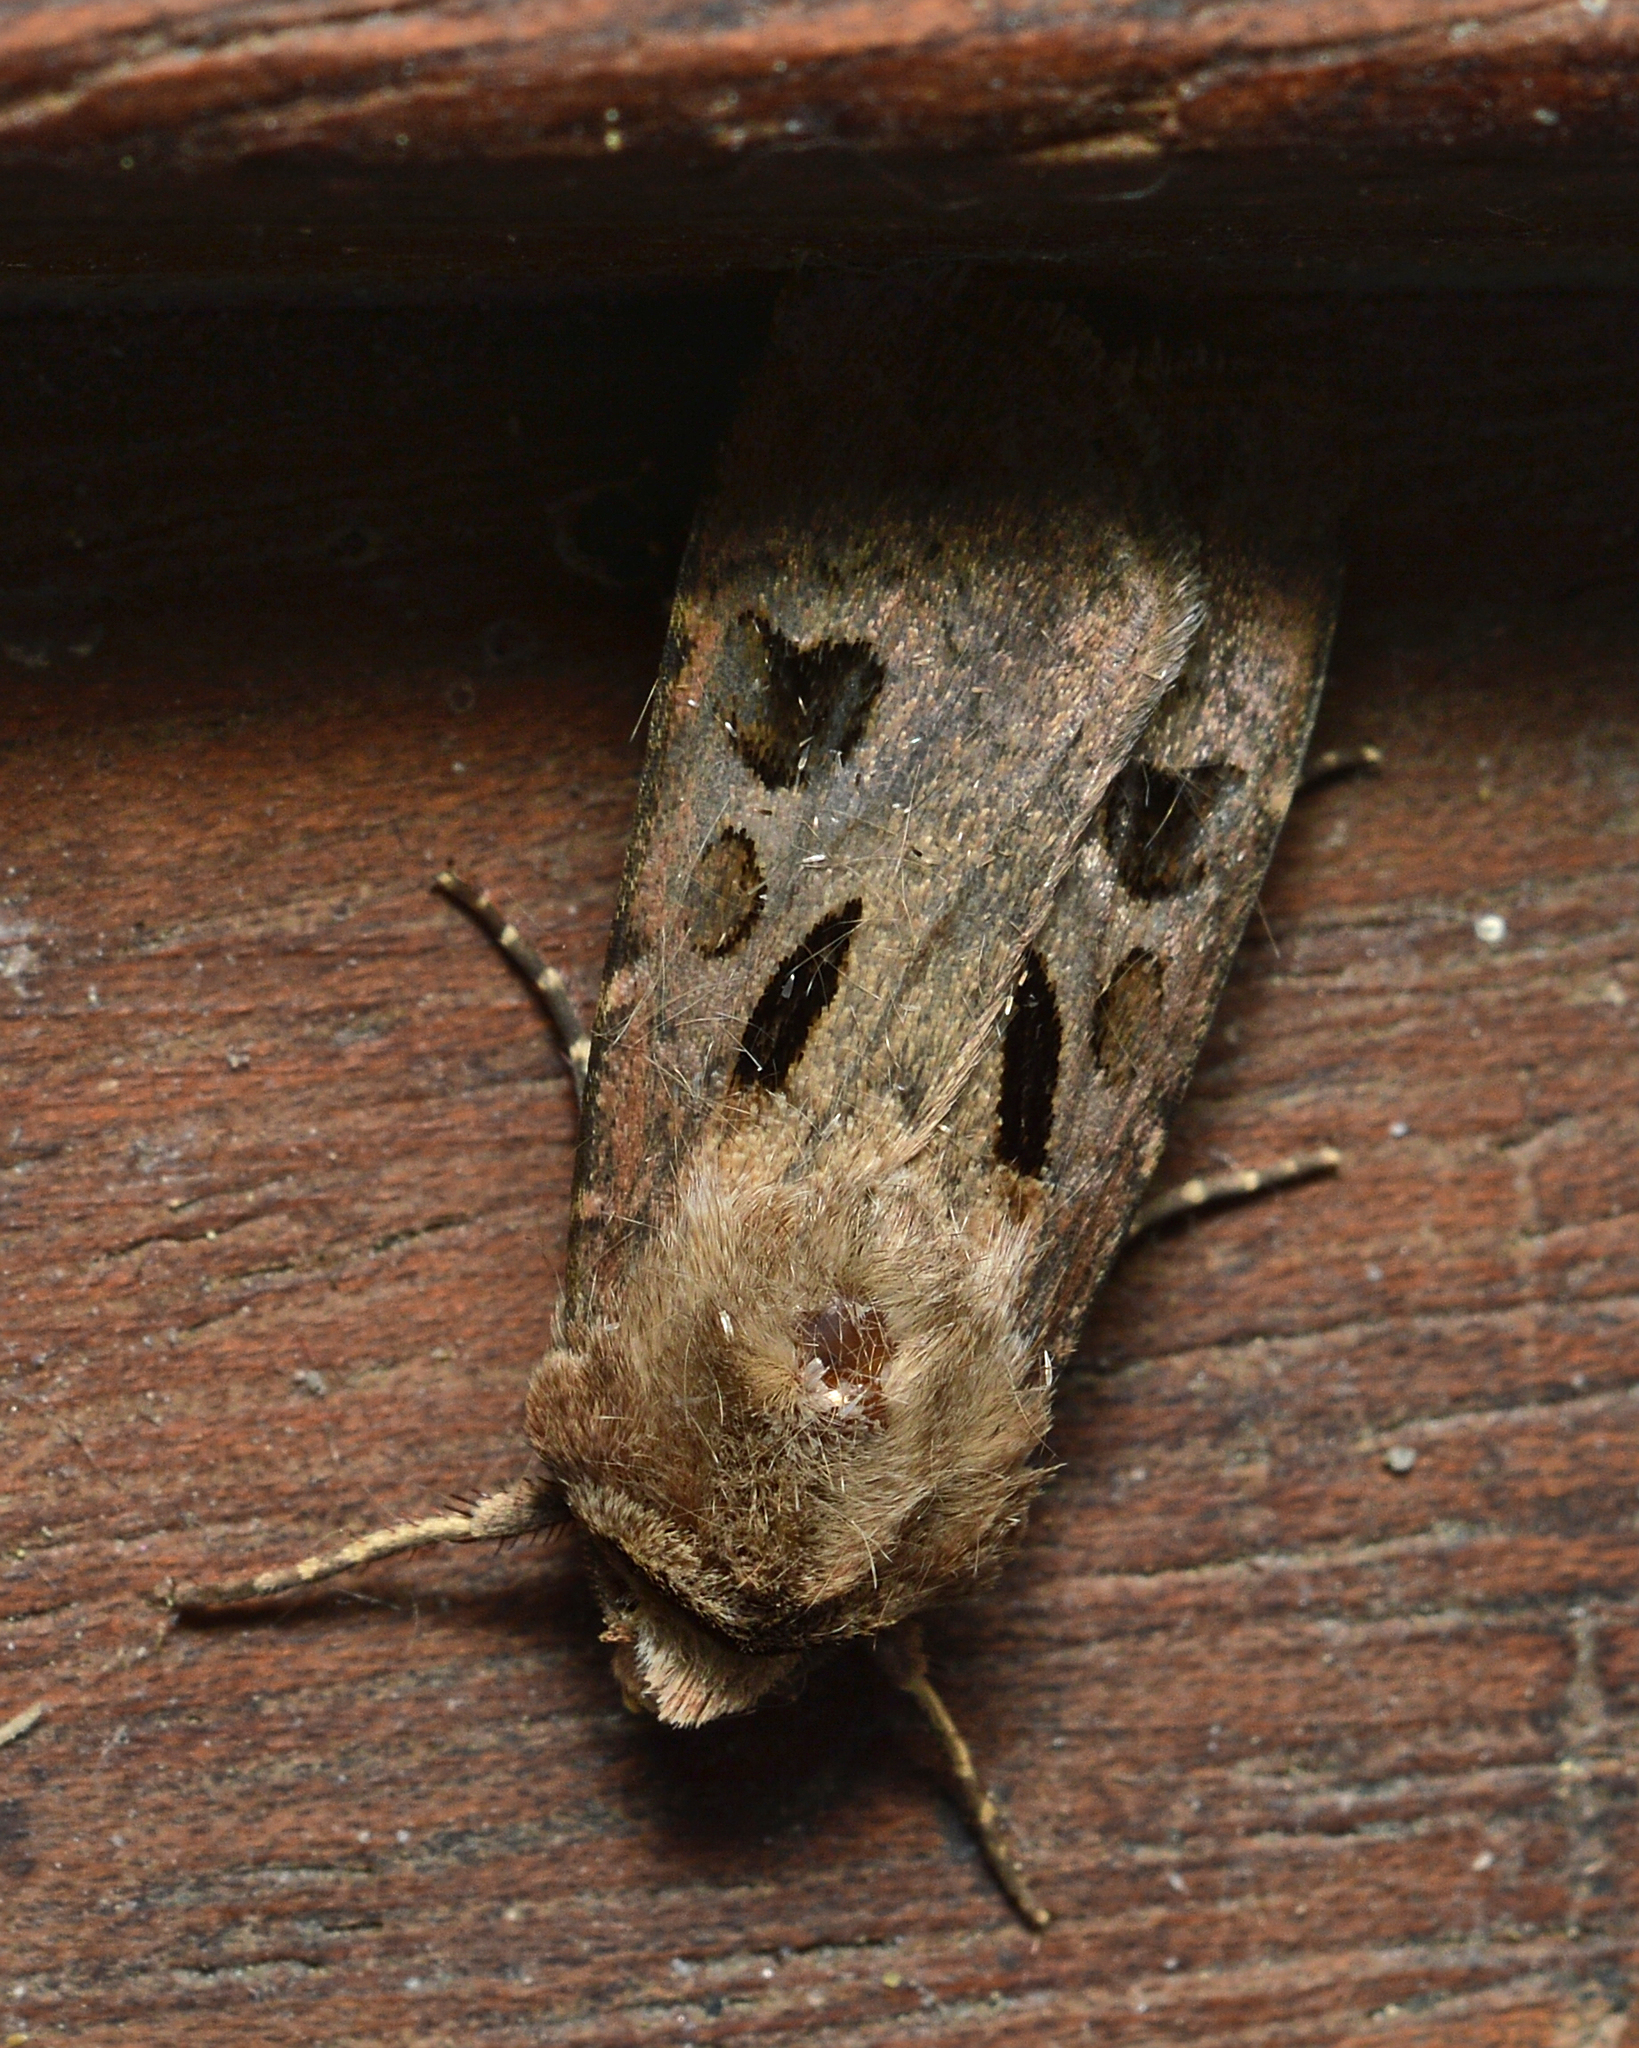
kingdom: Animalia
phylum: Arthropoda
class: Insecta
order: Lepidoptera
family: Noctuidae
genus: Agrotis
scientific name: Agrotis exclamationis
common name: Heart and dart
